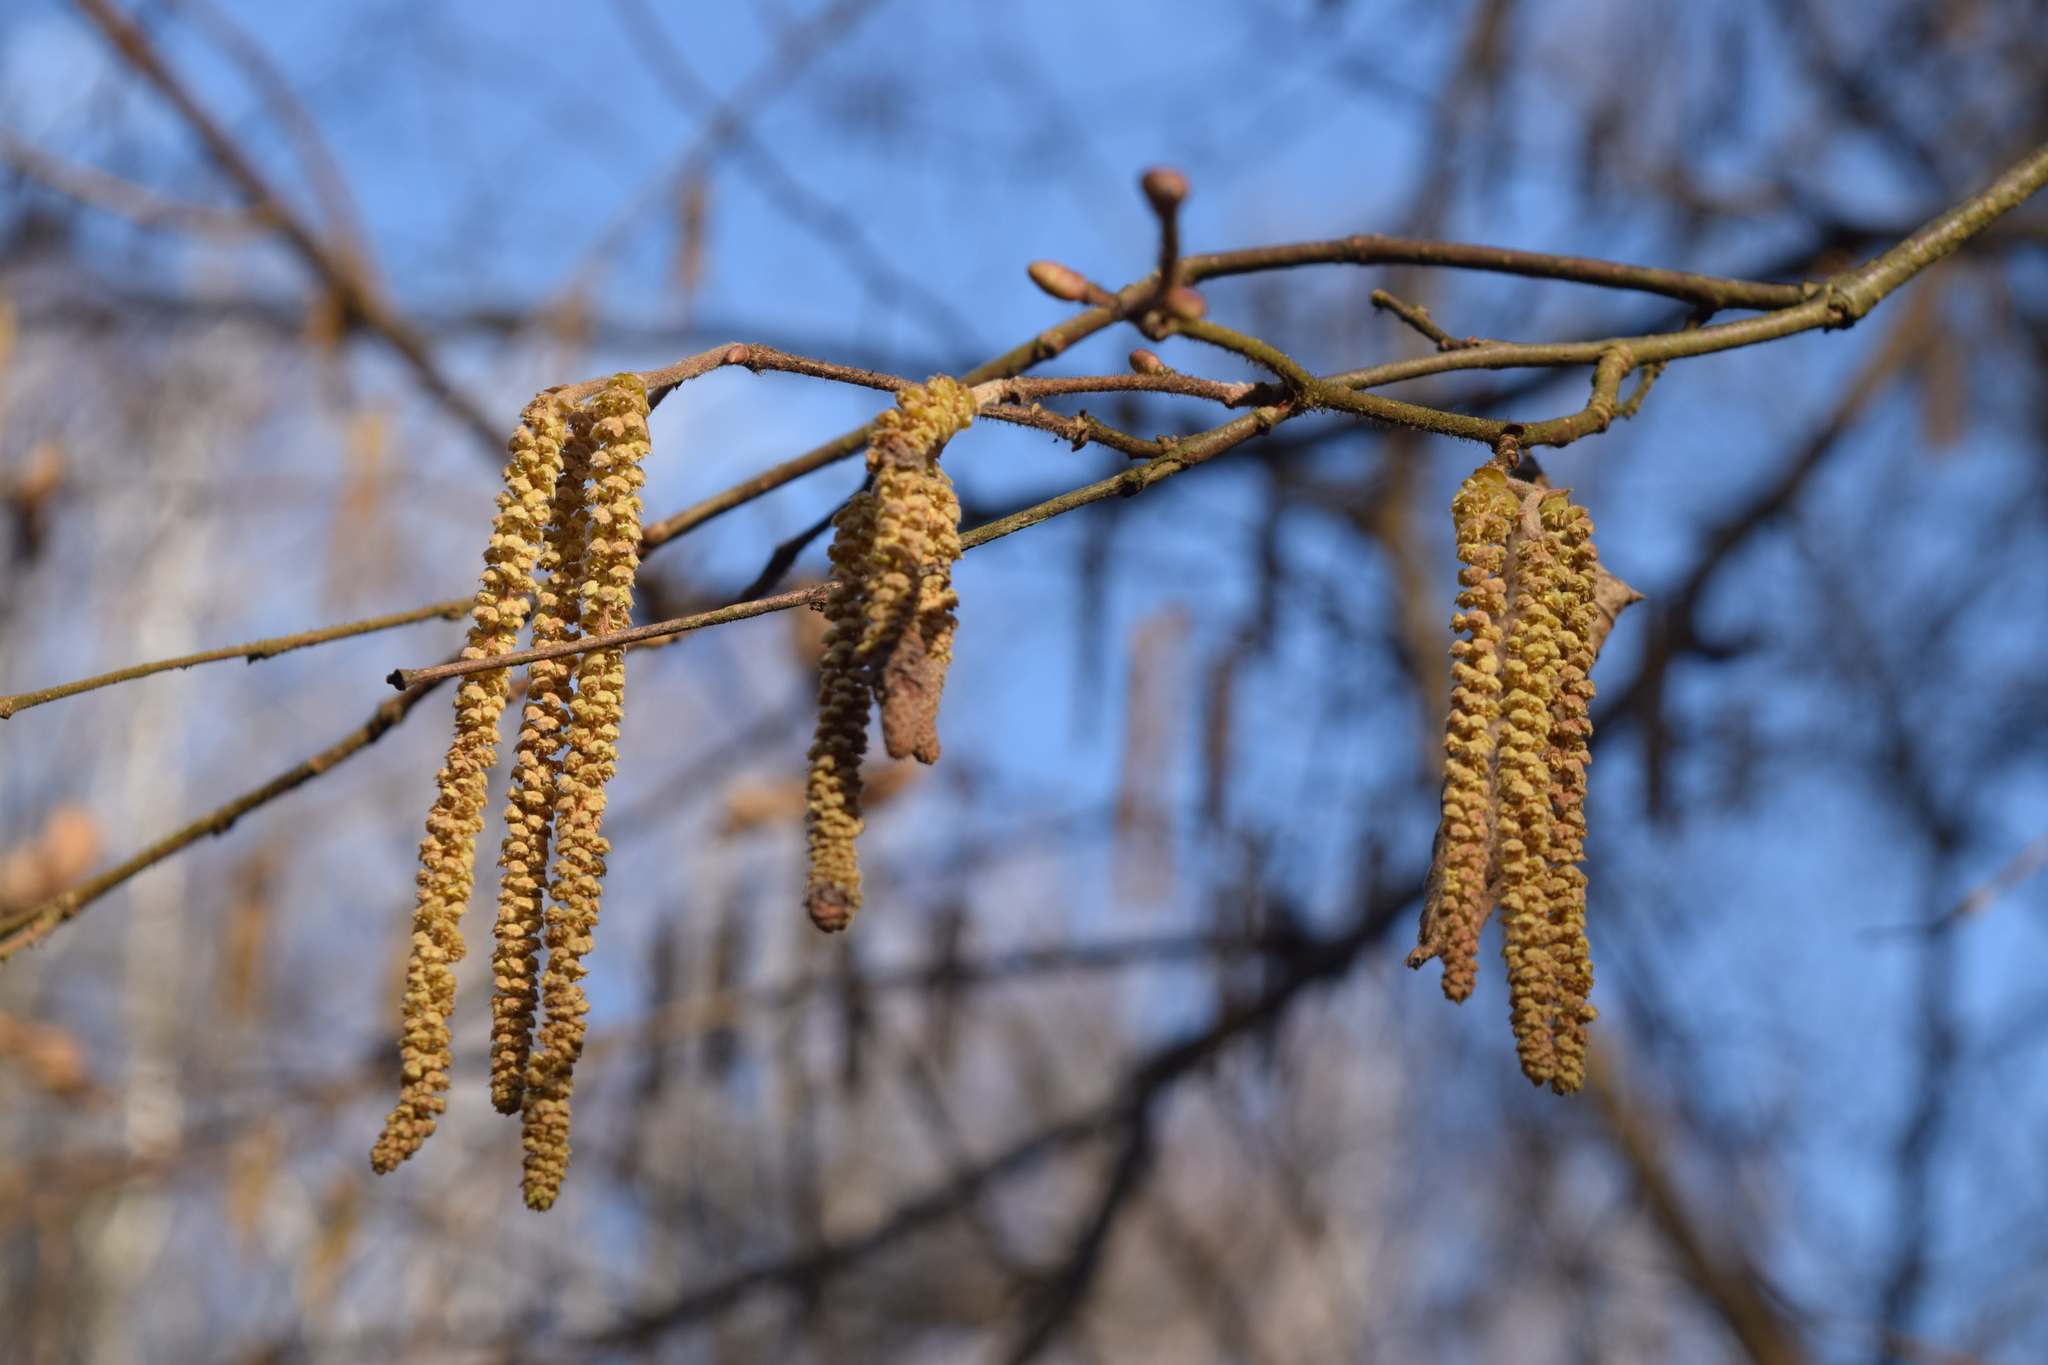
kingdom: Plantae
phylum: Tracheophyta
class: Magnoliopsida
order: Fagales
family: Betulaceae
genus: Corylus
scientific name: Corylus avellana
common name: European hazel
